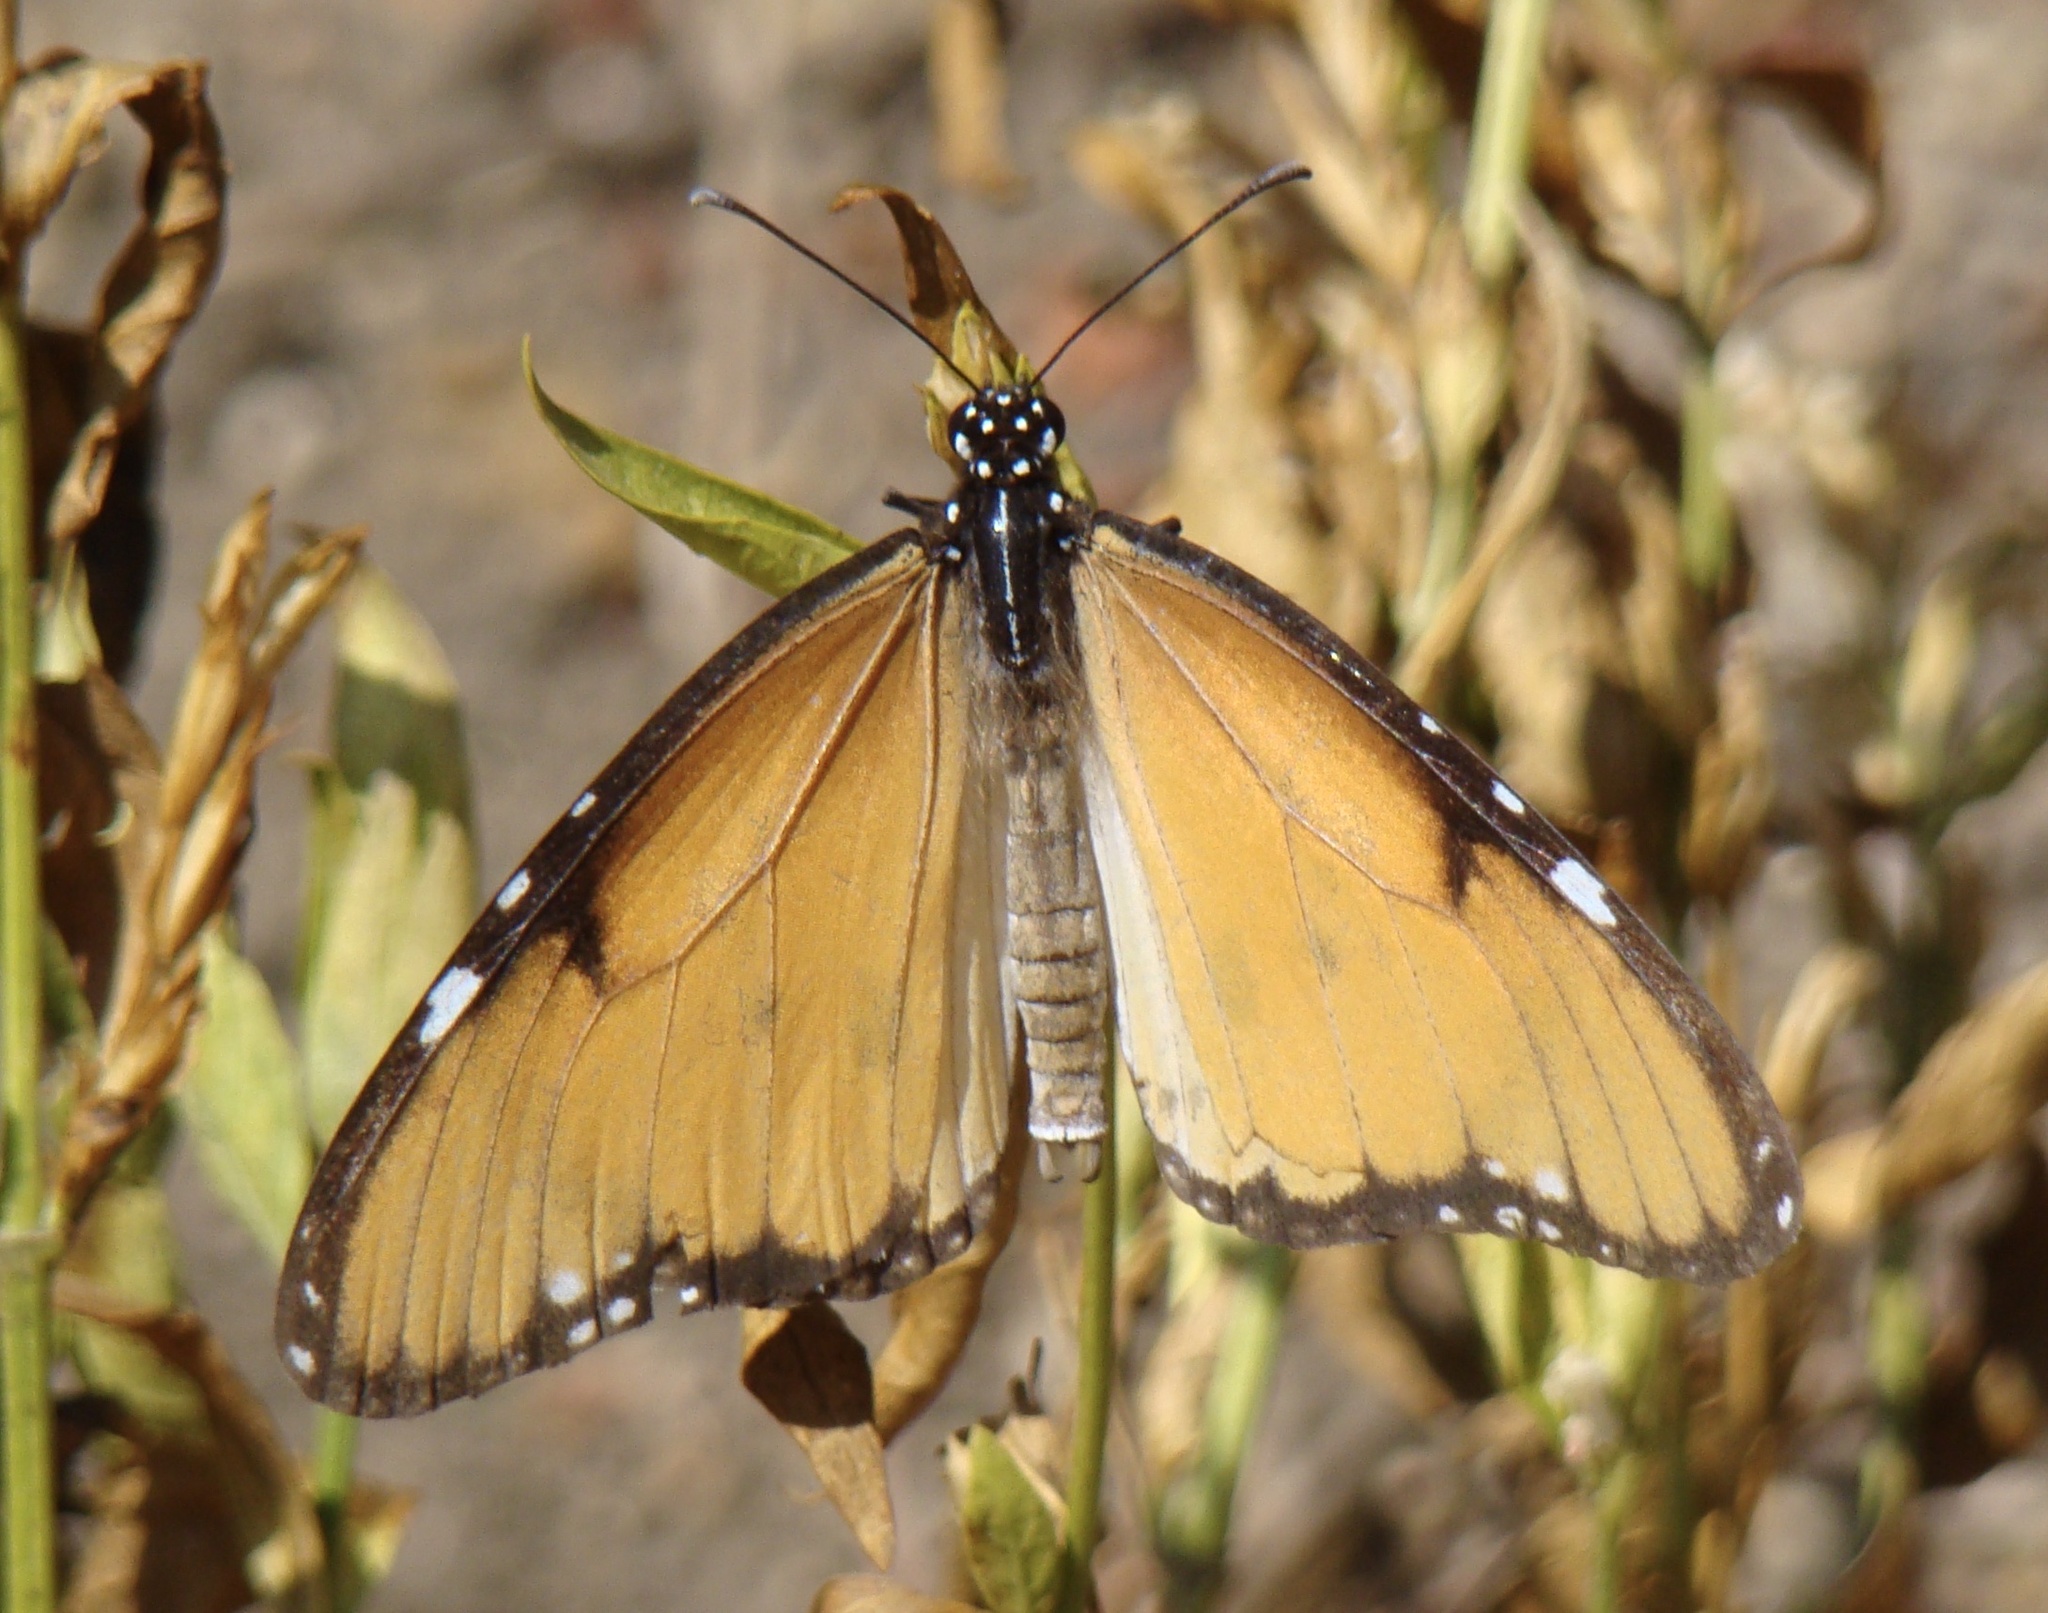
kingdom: Animalia
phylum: Arthropoda
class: Insecta
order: Lepidoptera
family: Nymphalidae
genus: Danaus
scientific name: Danaus chrysippus
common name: Plain tiger
